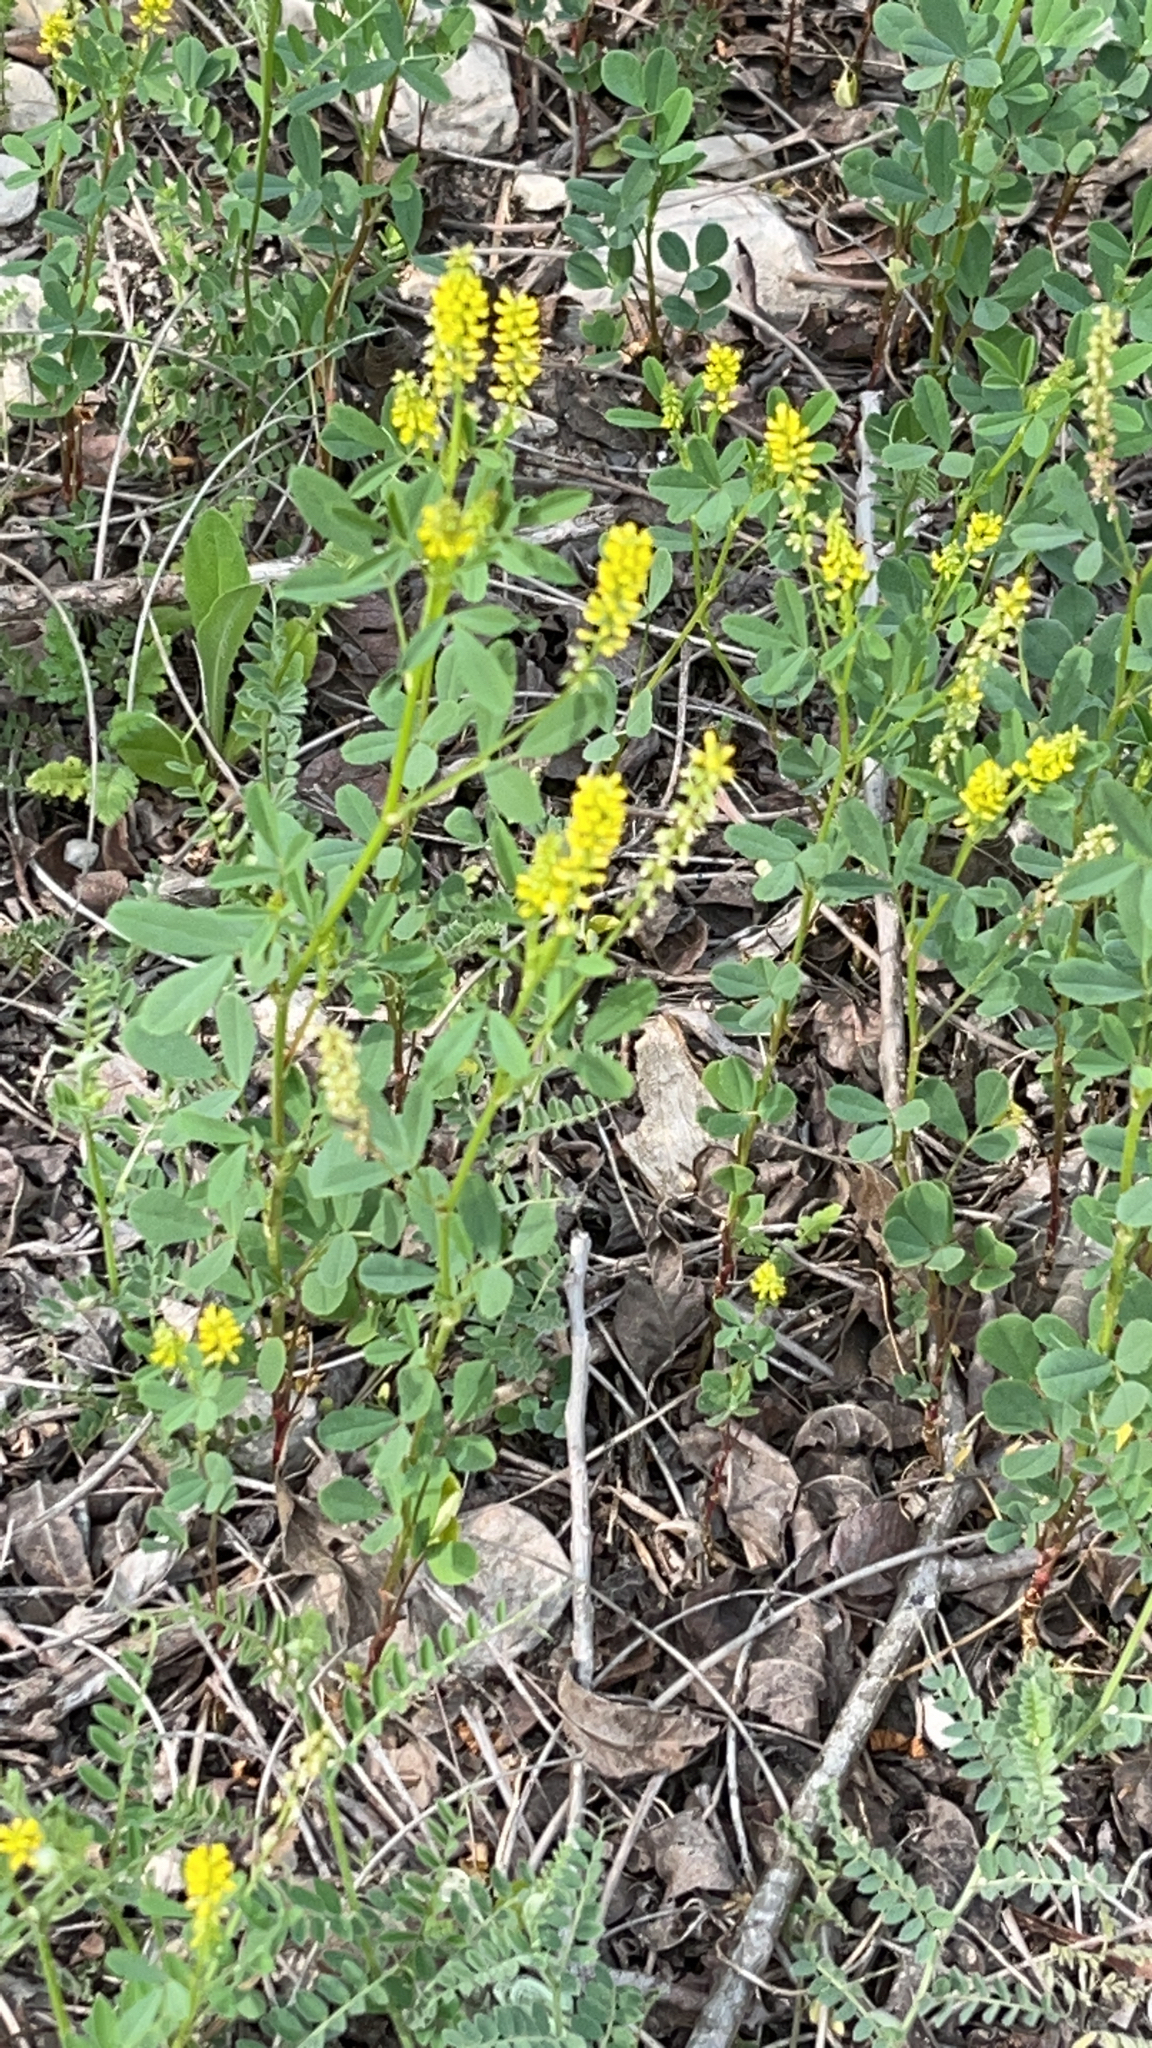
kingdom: Plantae
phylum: Tracheophyta
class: Magnoliopsida
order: Fabales
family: Fabaceae
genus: Melilotus
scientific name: Melilotus indicus
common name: Small melilot
